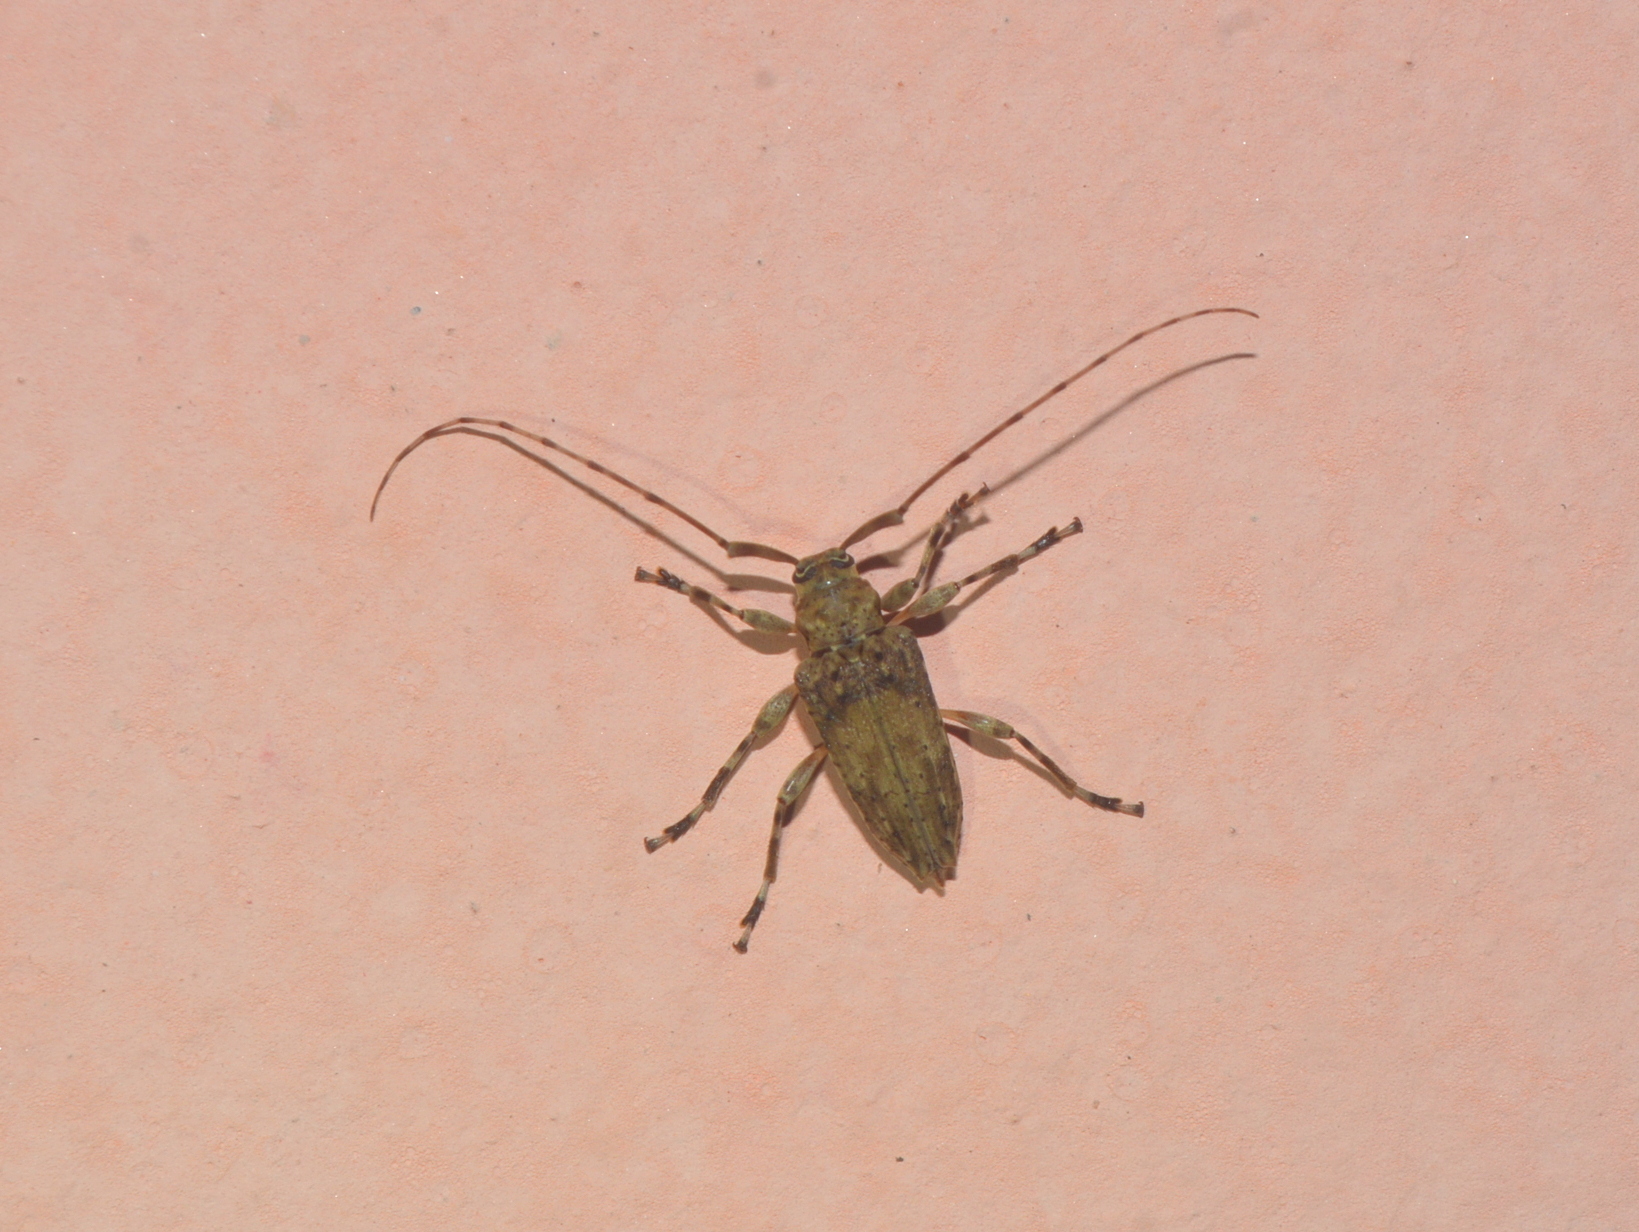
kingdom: Animalia
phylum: Arthropoda
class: Insecta
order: Coleoptera
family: Cerambycidae
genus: Nealcidion
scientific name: Nealcidion bicristatum
